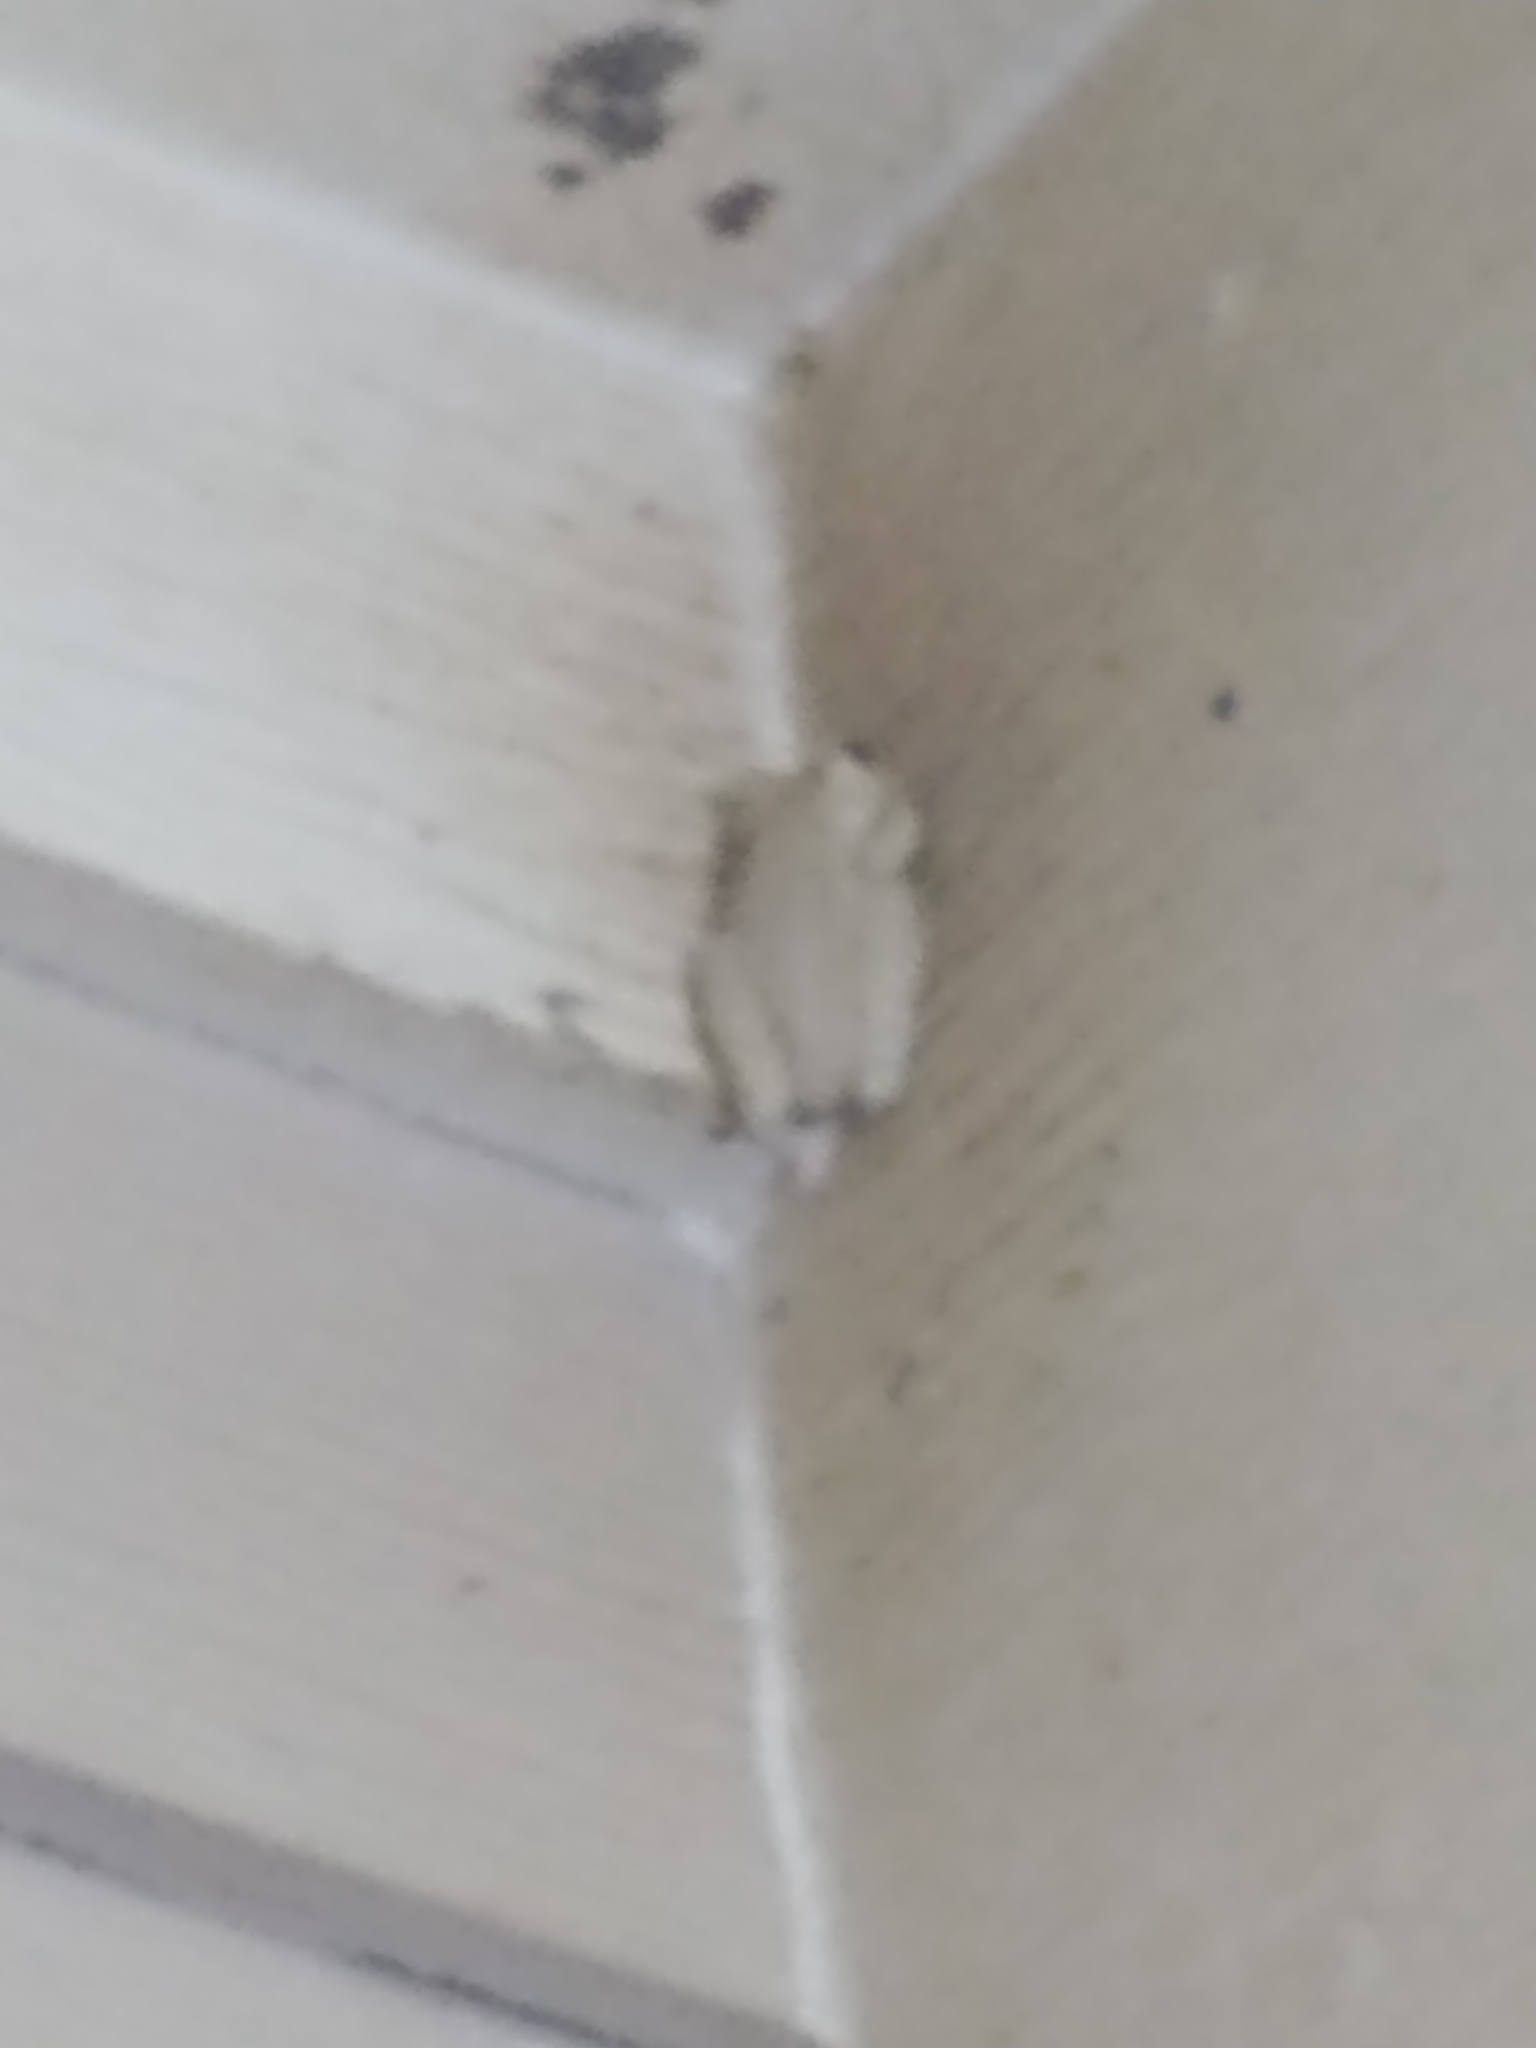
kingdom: Animalia
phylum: Chordata
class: Amphibia
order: Anura
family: Hylidae
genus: Osteopilus
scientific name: Osteopilus septentrionalis
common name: Cuban treefrog
